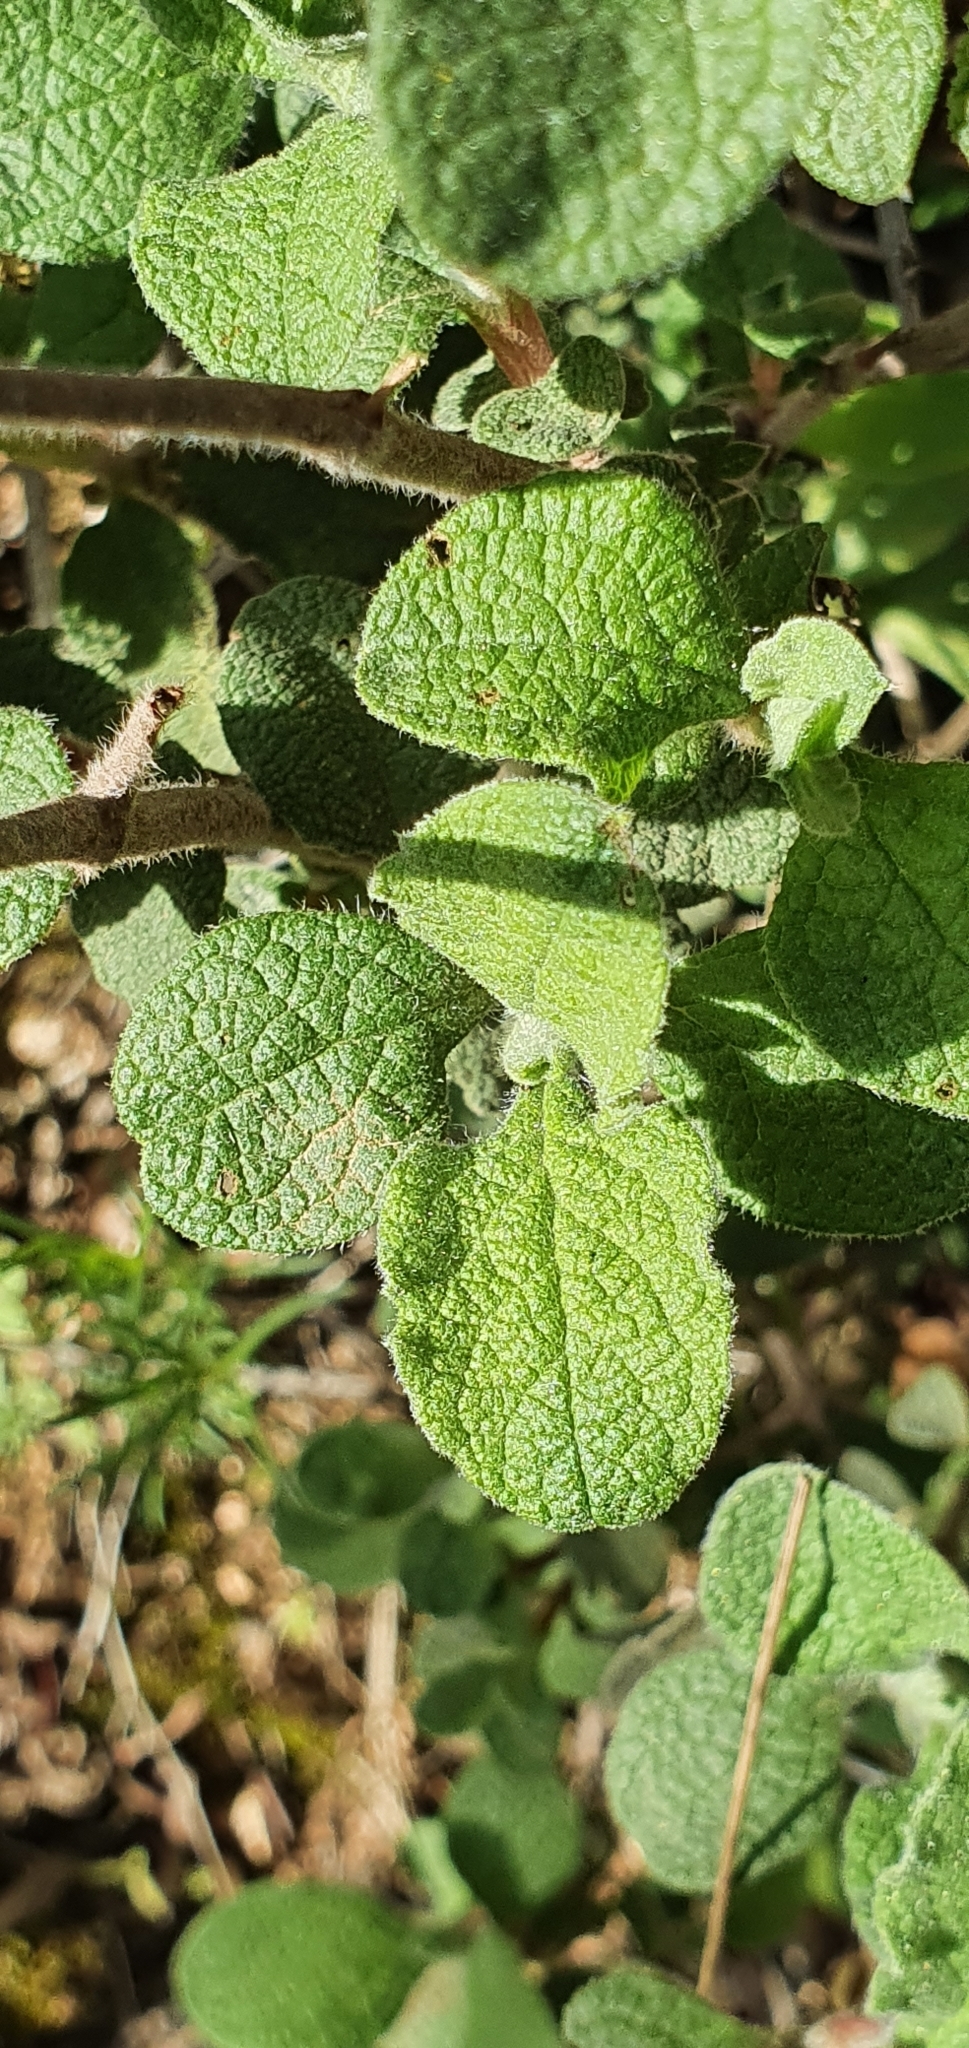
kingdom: Plantae
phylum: Tracheophyta
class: Magnoliopsida
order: Malvales
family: Cistaceae
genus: Cistus
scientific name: Cistus creticus
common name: Cretan rockrose
